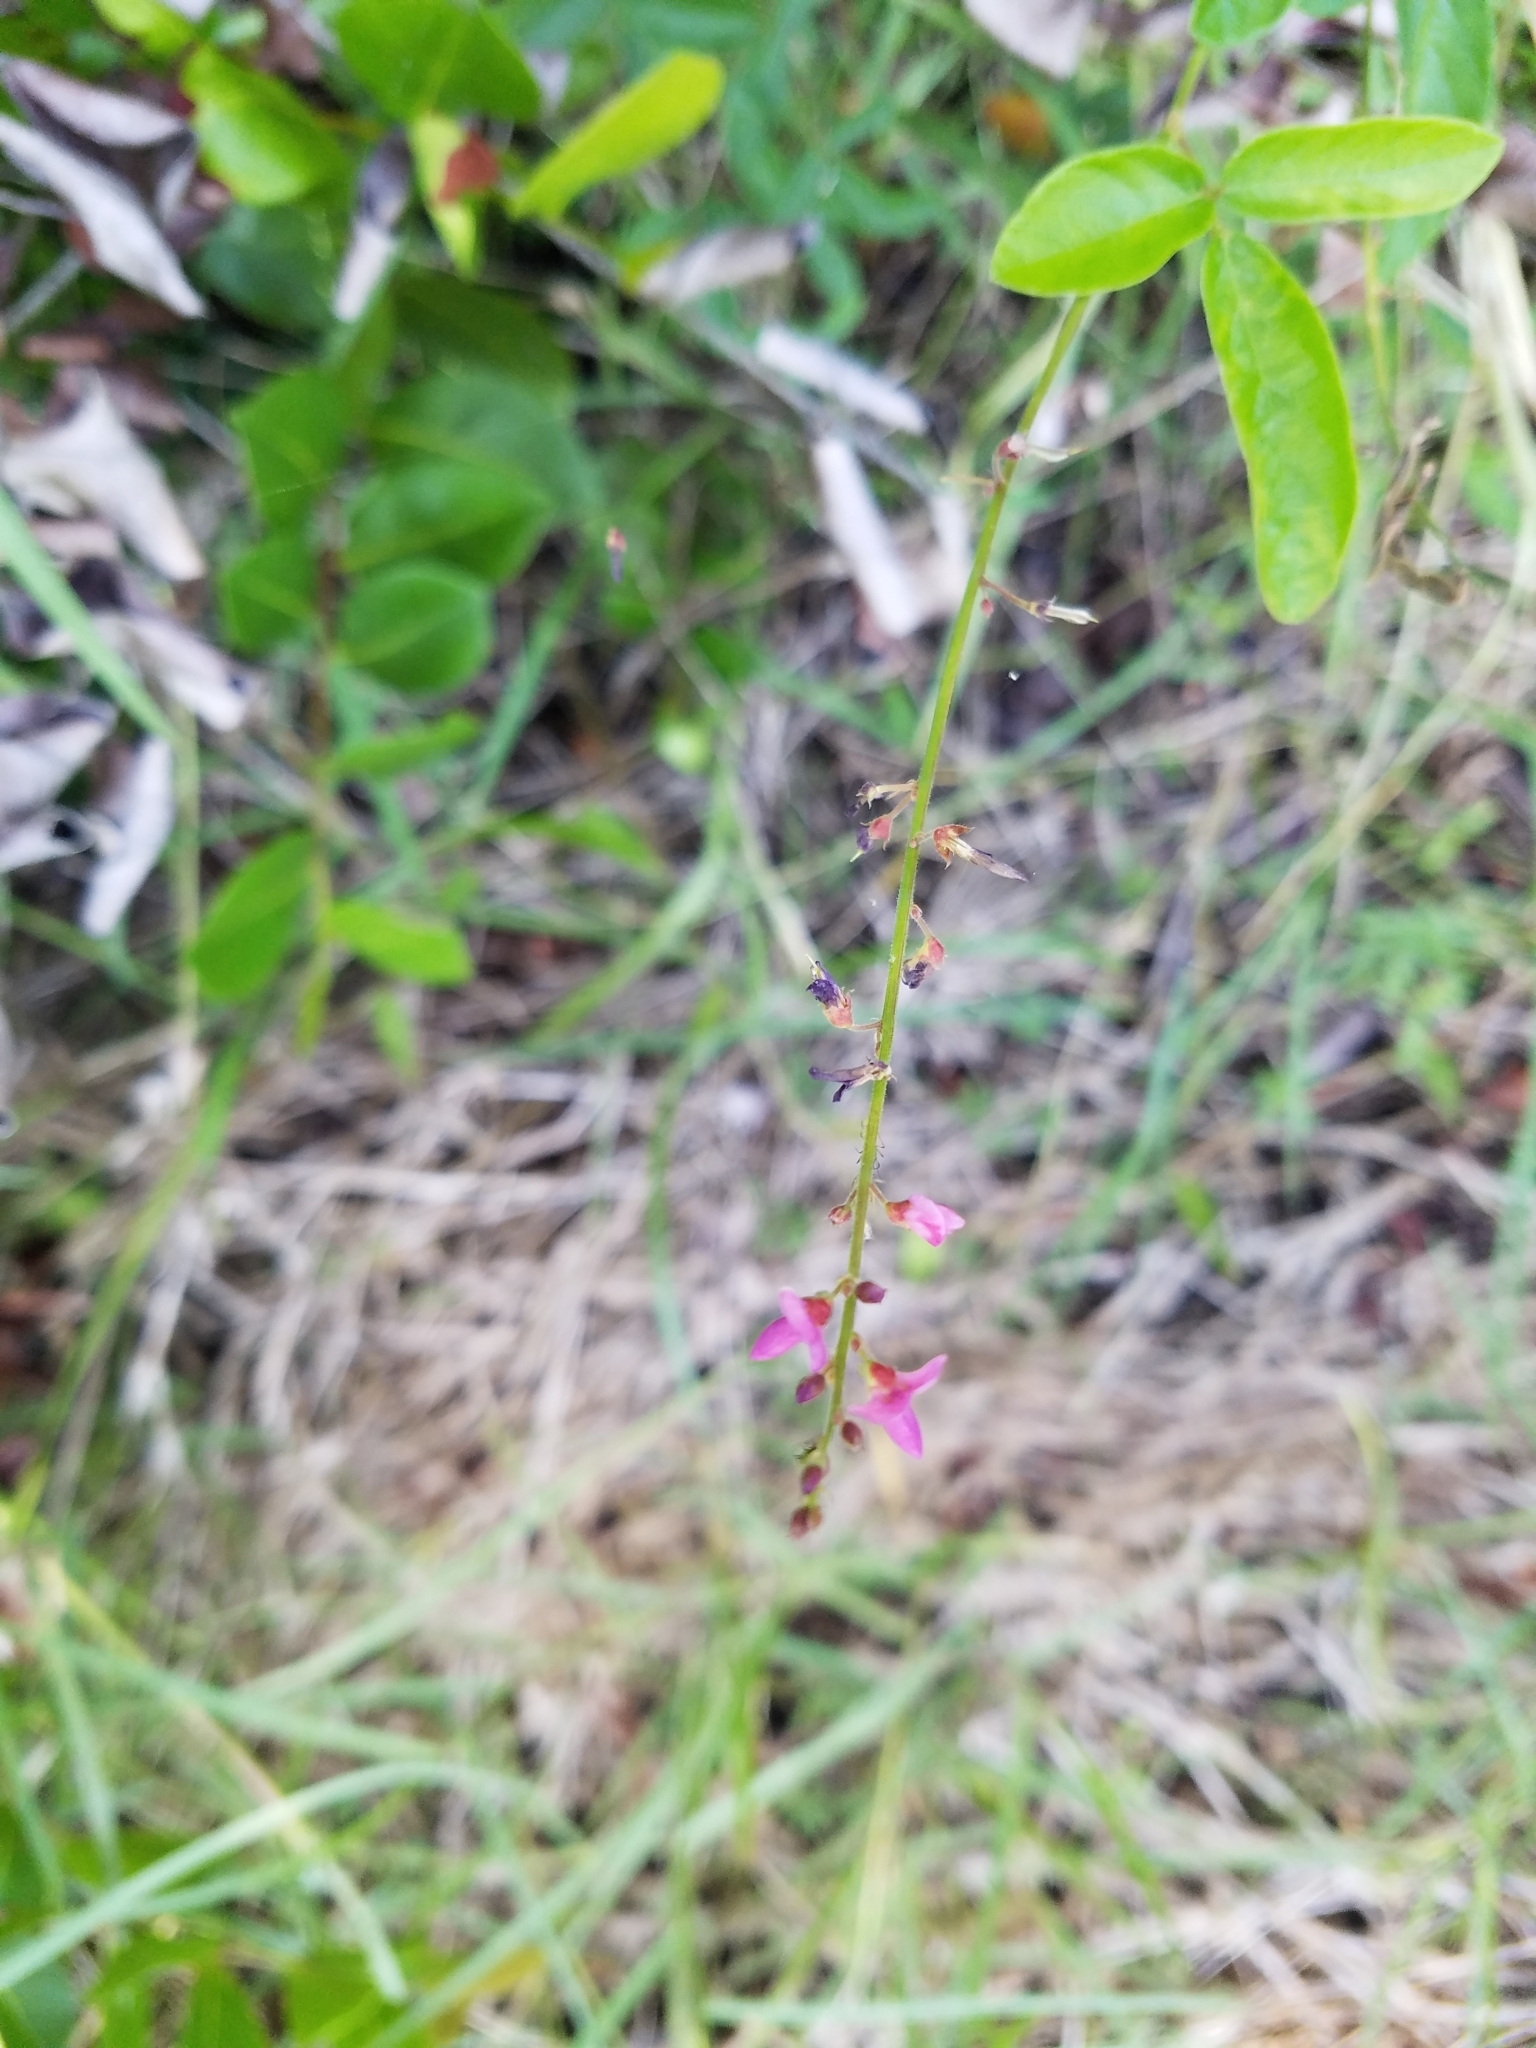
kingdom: Plantae
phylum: Tracheophyta
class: Magnoliopsida
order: Fabales
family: Fabaceae
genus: Desmodium
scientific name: Desmodium incanum
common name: Tickclover
